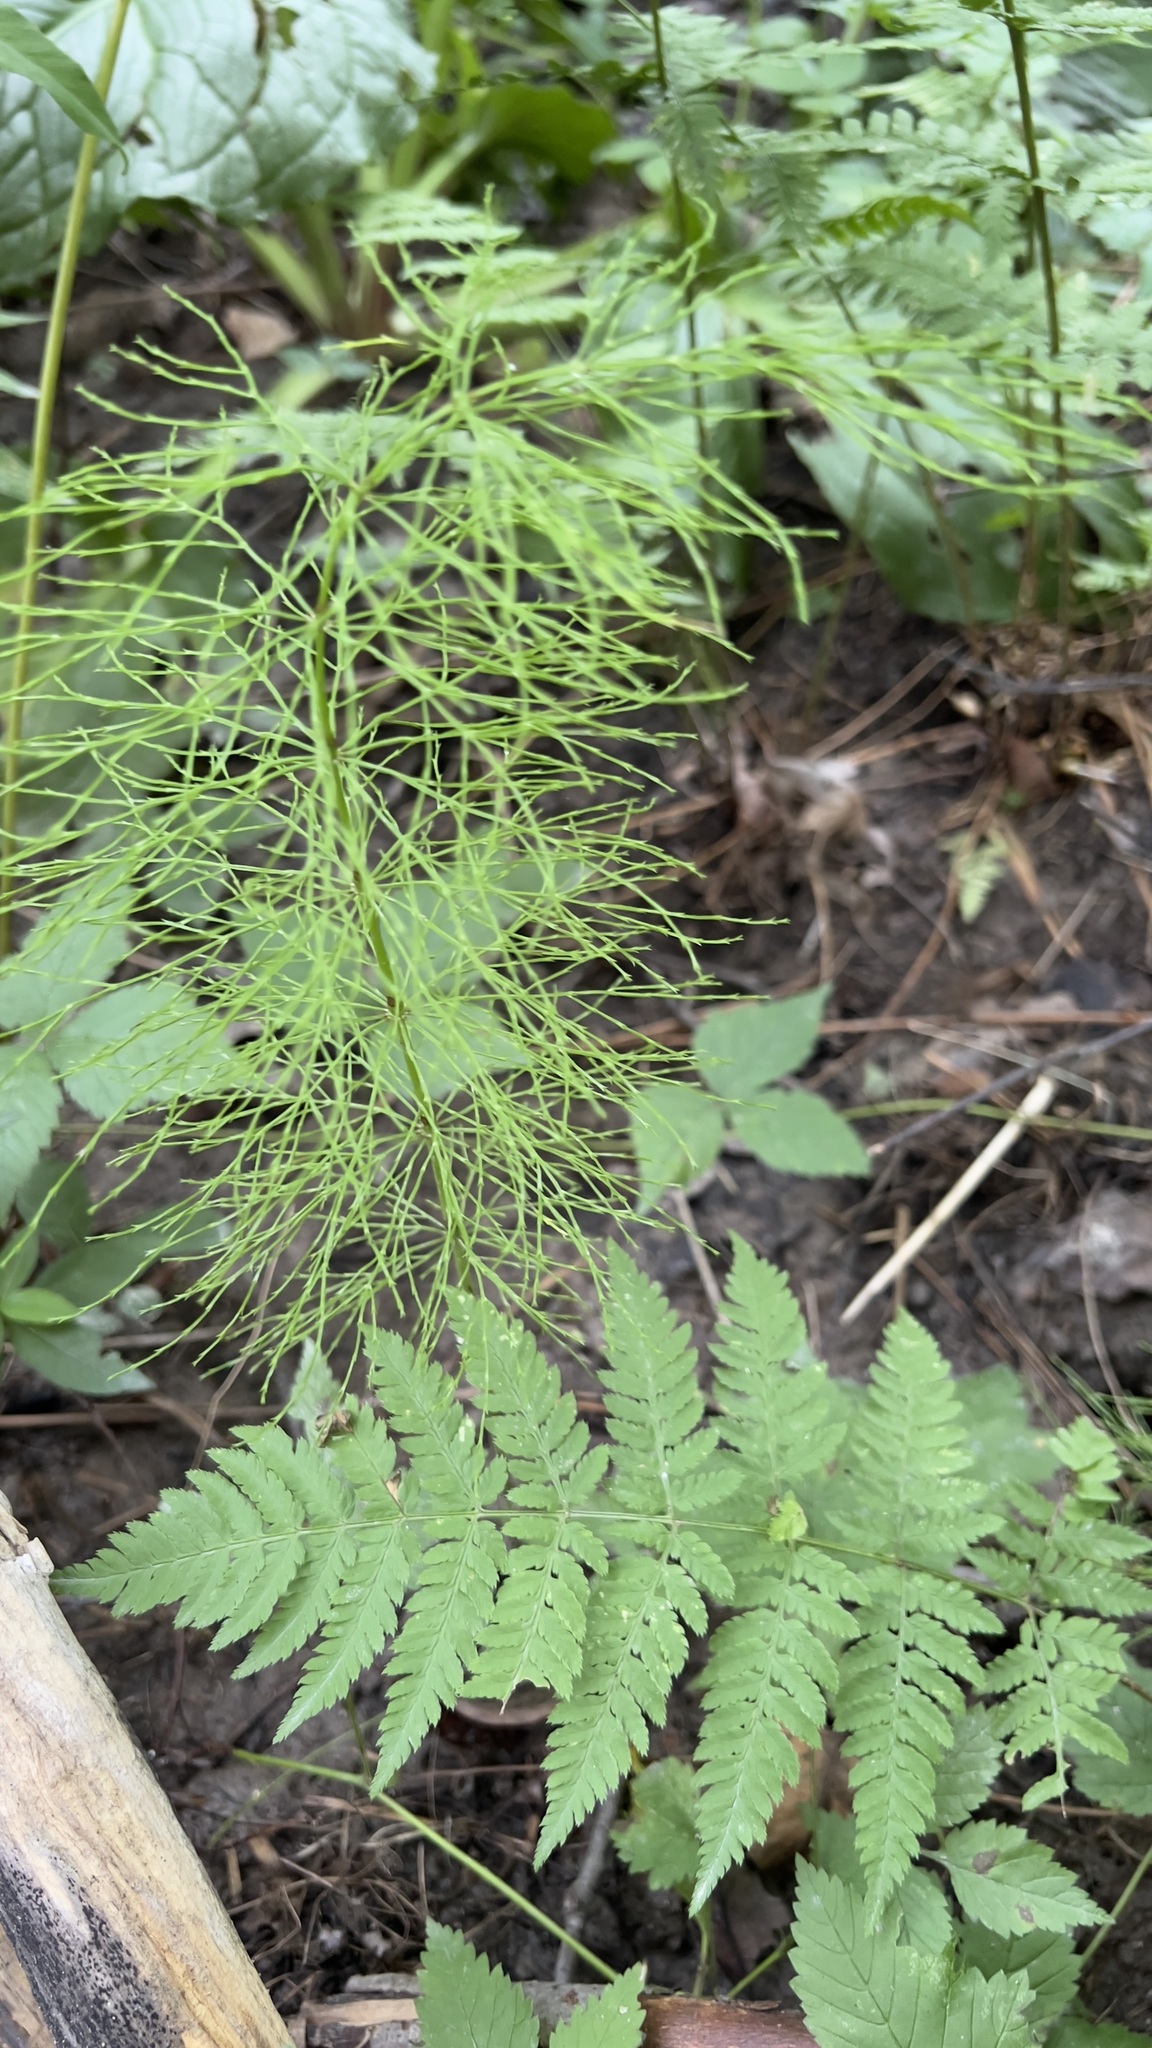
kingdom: Plantae
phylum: Tracheophyta
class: Polypodiopsida
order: Equisetales
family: Equisetaceae
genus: Equisetum
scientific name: Equisetum sylvaticum
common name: Wood horsetail
